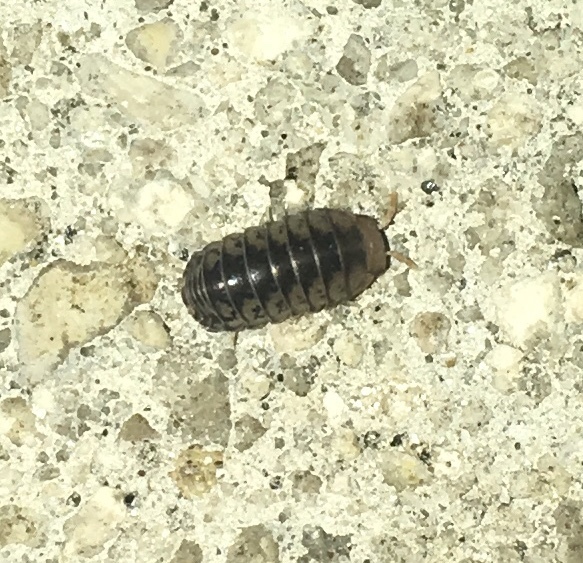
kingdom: Animalia
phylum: Arthropoda
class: Malacostraca
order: Isopoda
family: Armadillidae
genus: Venezillo
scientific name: Venezillo parvus
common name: Pillbug
